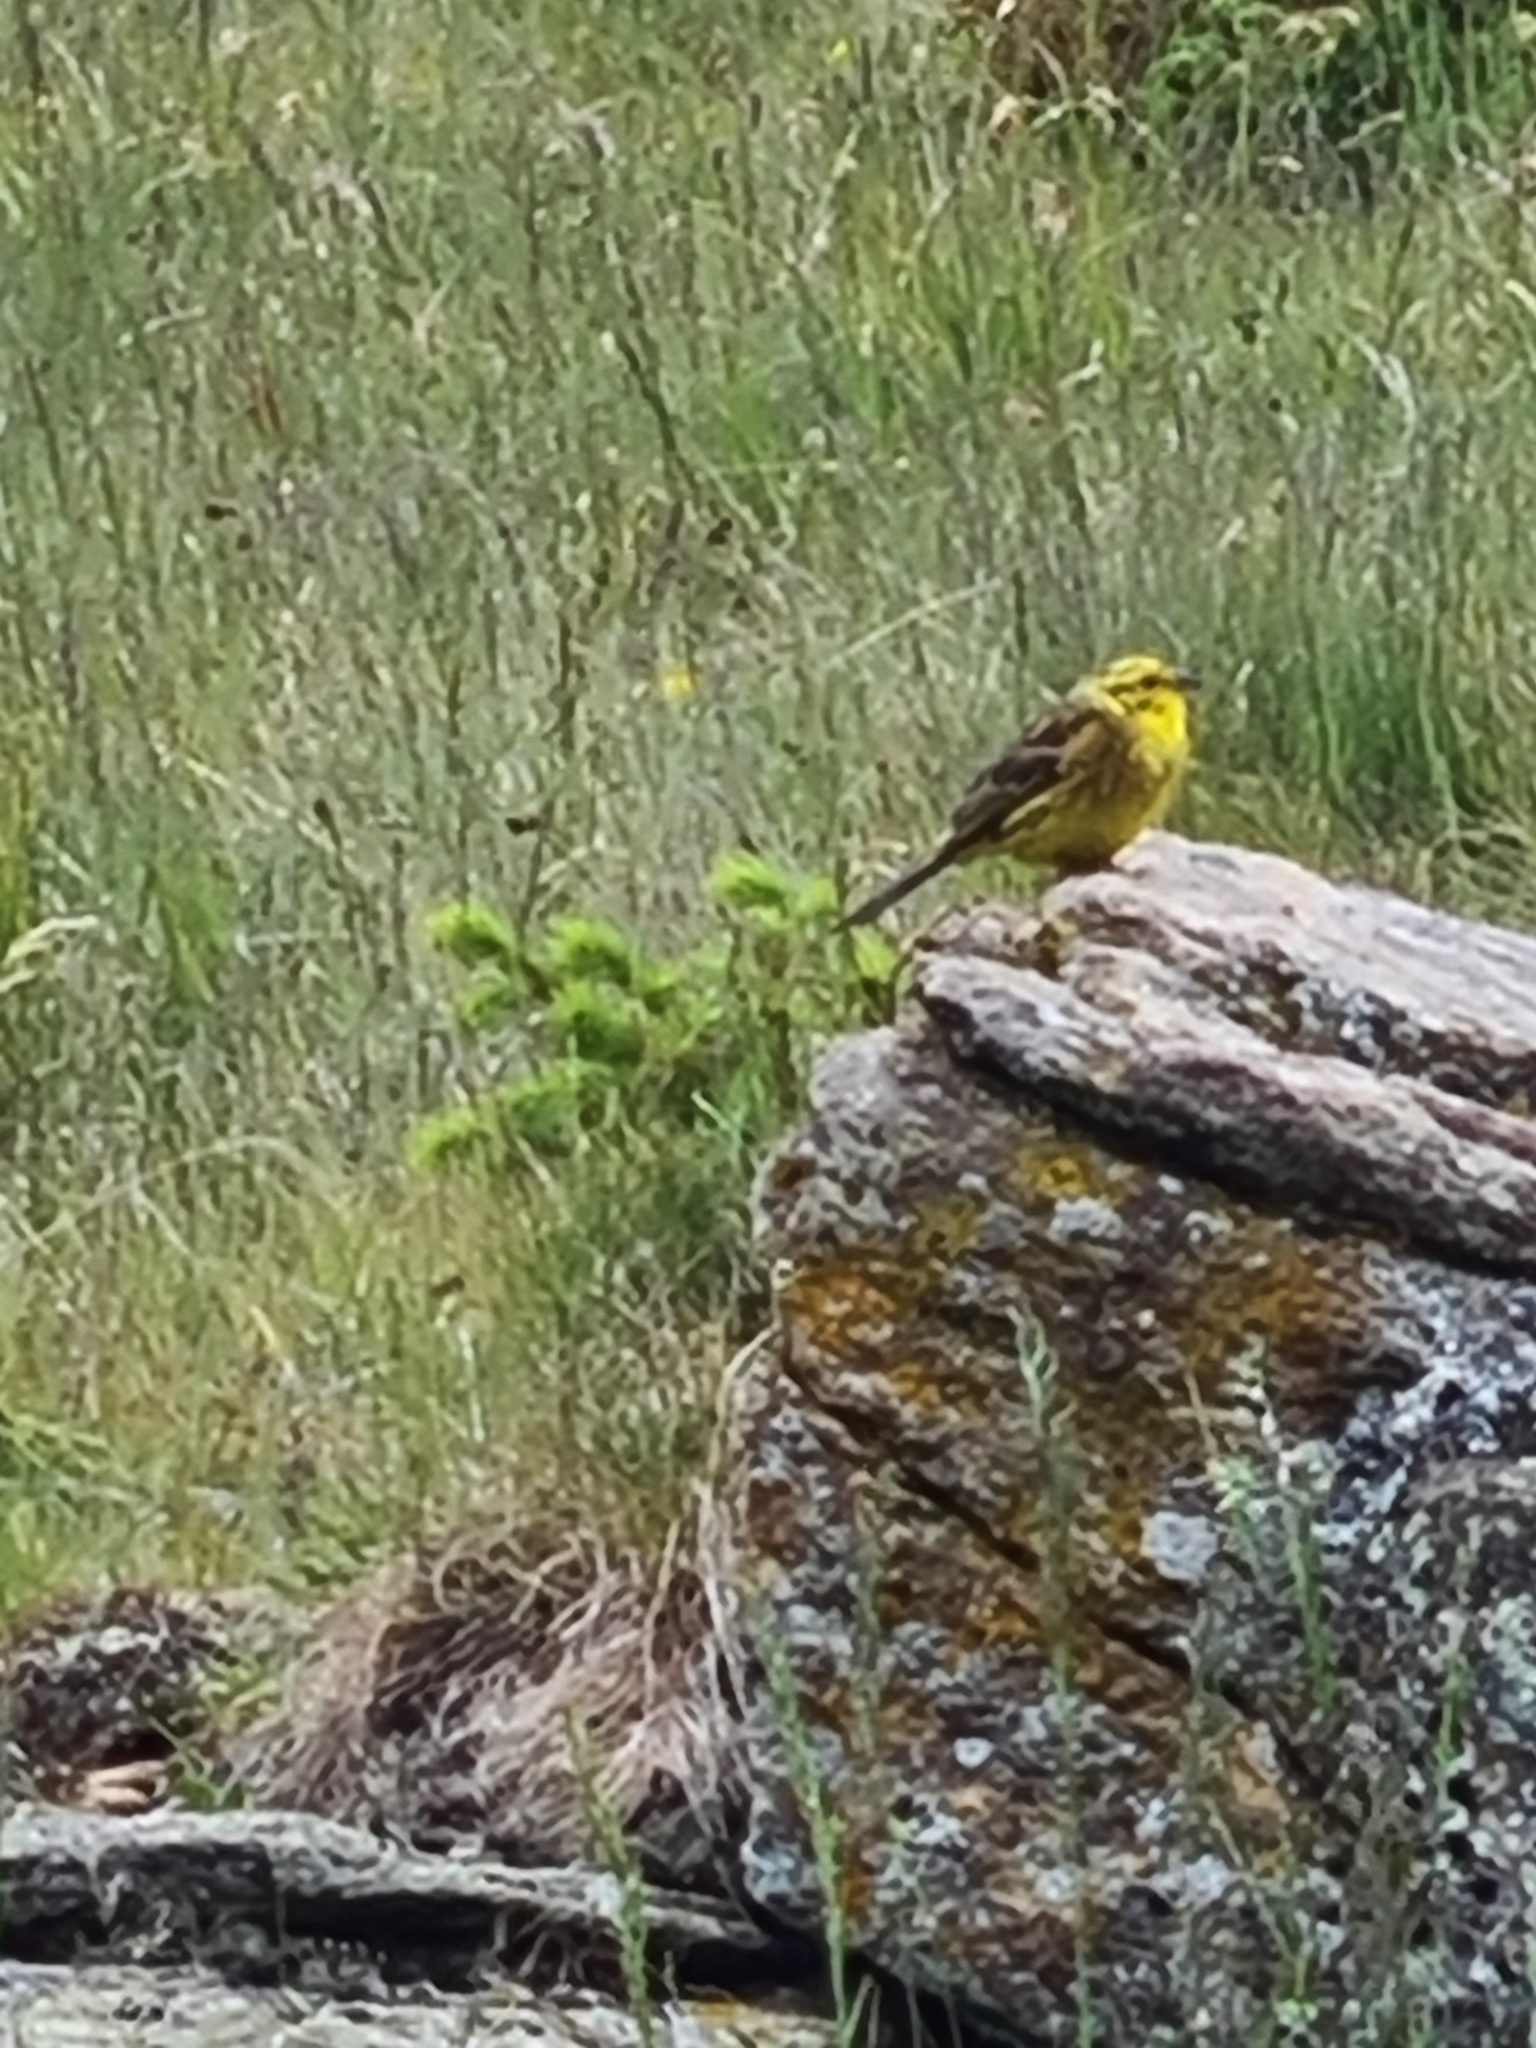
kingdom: Animalia
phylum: Chordata
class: Aves
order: Passeriformes
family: Emberizidae
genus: Emberiza
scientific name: Emberiza citrinella
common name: Yellowhammer
